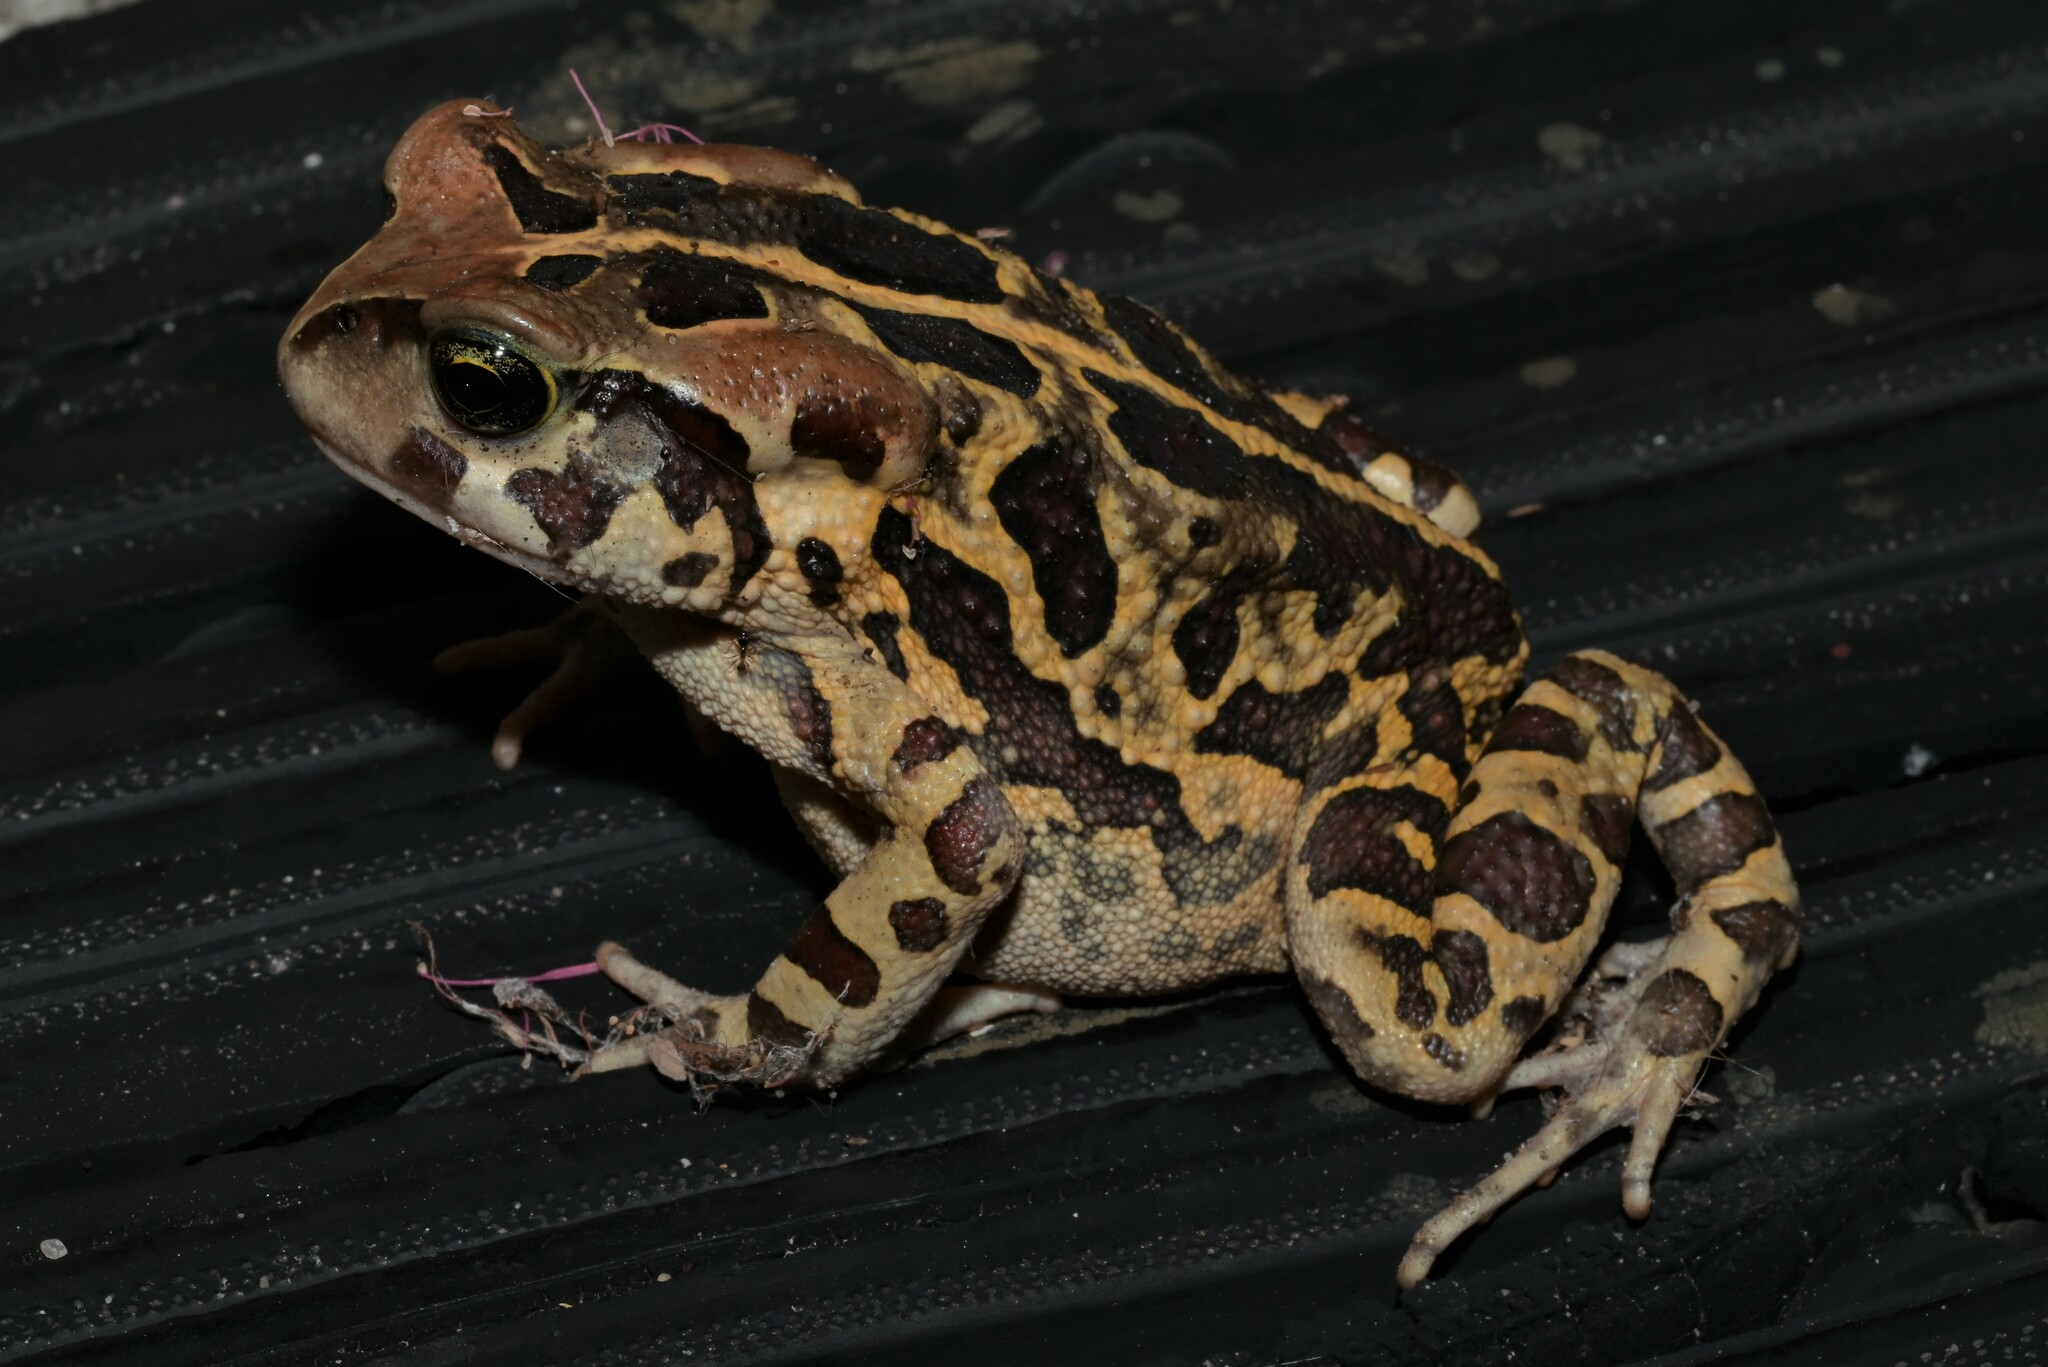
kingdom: Animalia
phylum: Chordata
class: Amphibia
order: Anura
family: Bufonidae
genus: Sclerophrys
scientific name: Sclerophrys pantherina
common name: Panther toad
